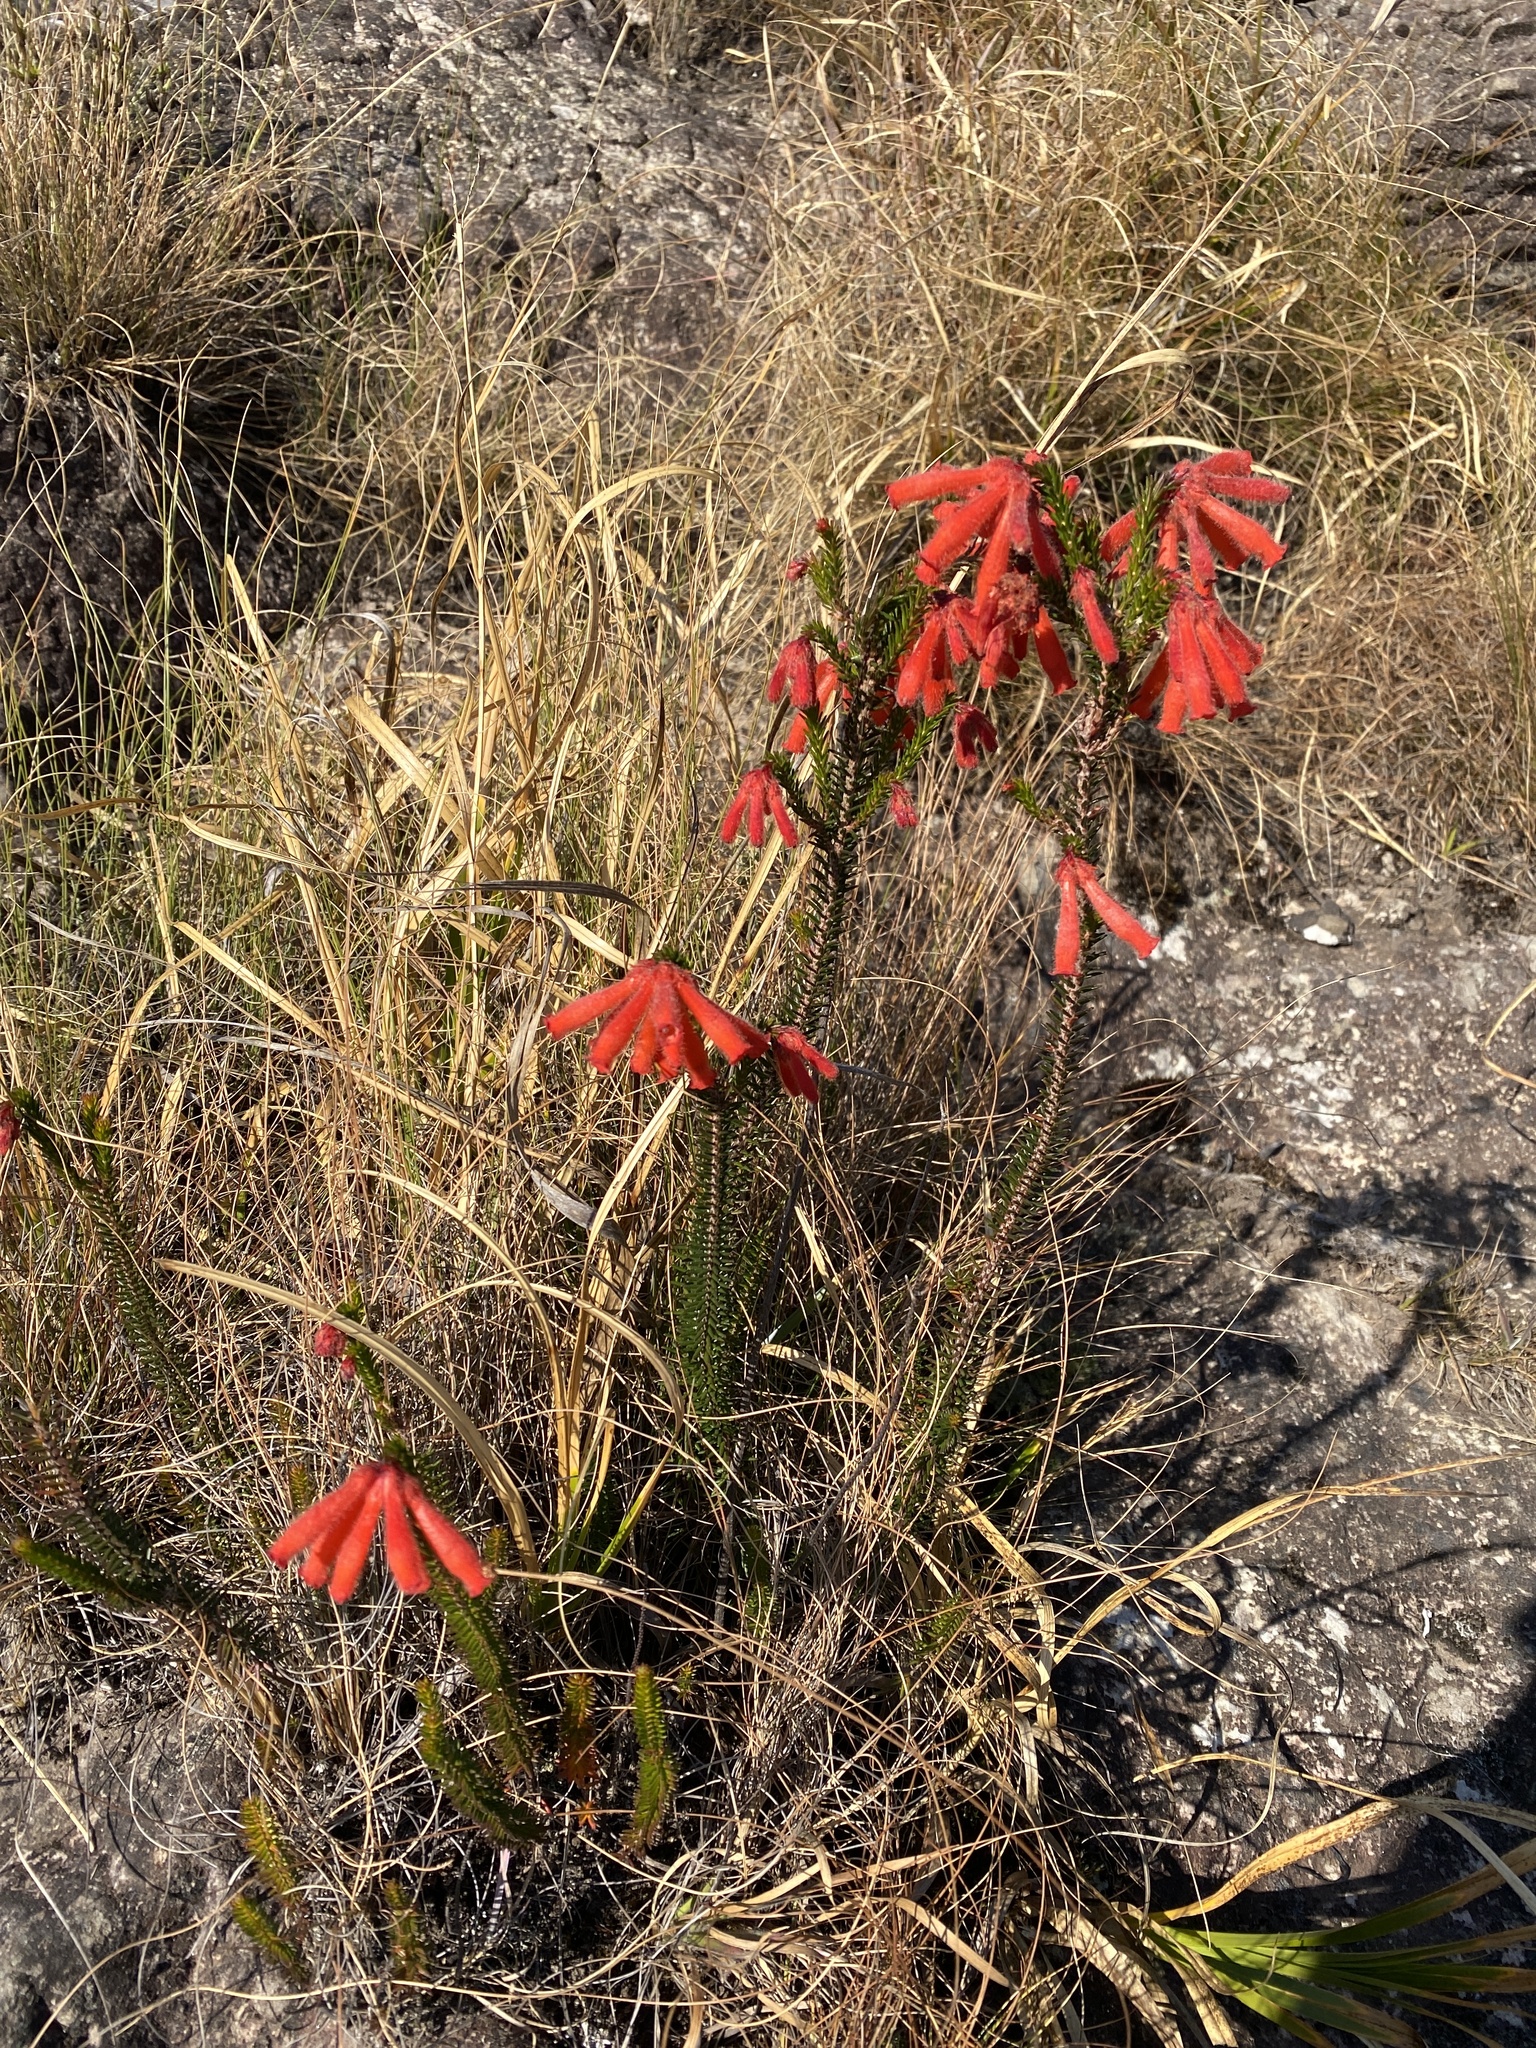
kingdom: Plantae
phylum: Tracheophyta
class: Magnoliopsida
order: Ericales
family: Ericaceae
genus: Erica
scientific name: Erica cerinthoides
